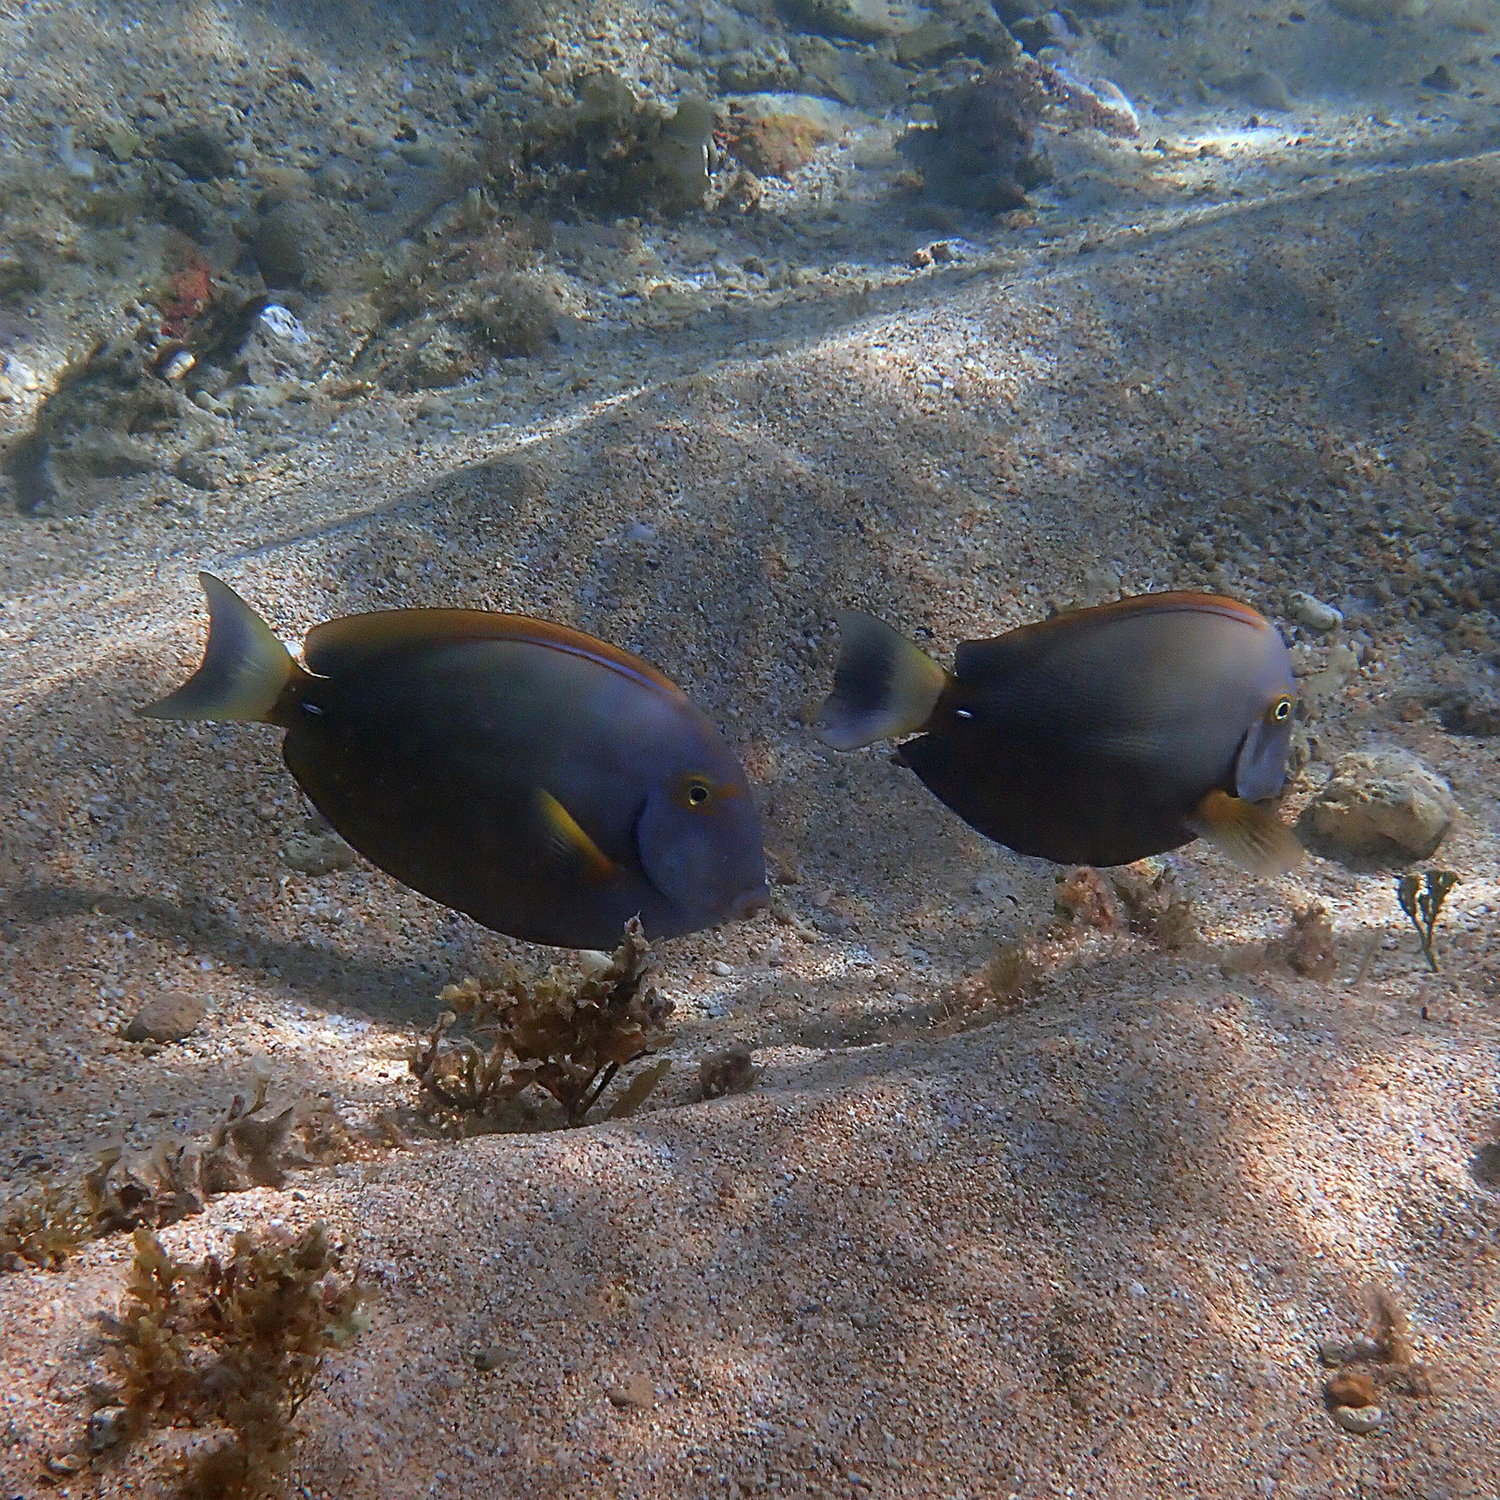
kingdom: Animalia
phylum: Chordata
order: Perciformes
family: Acanthuridae
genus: Acanthurus
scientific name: Acanthurus dussumieri
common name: Dussumier's surgeonfish
